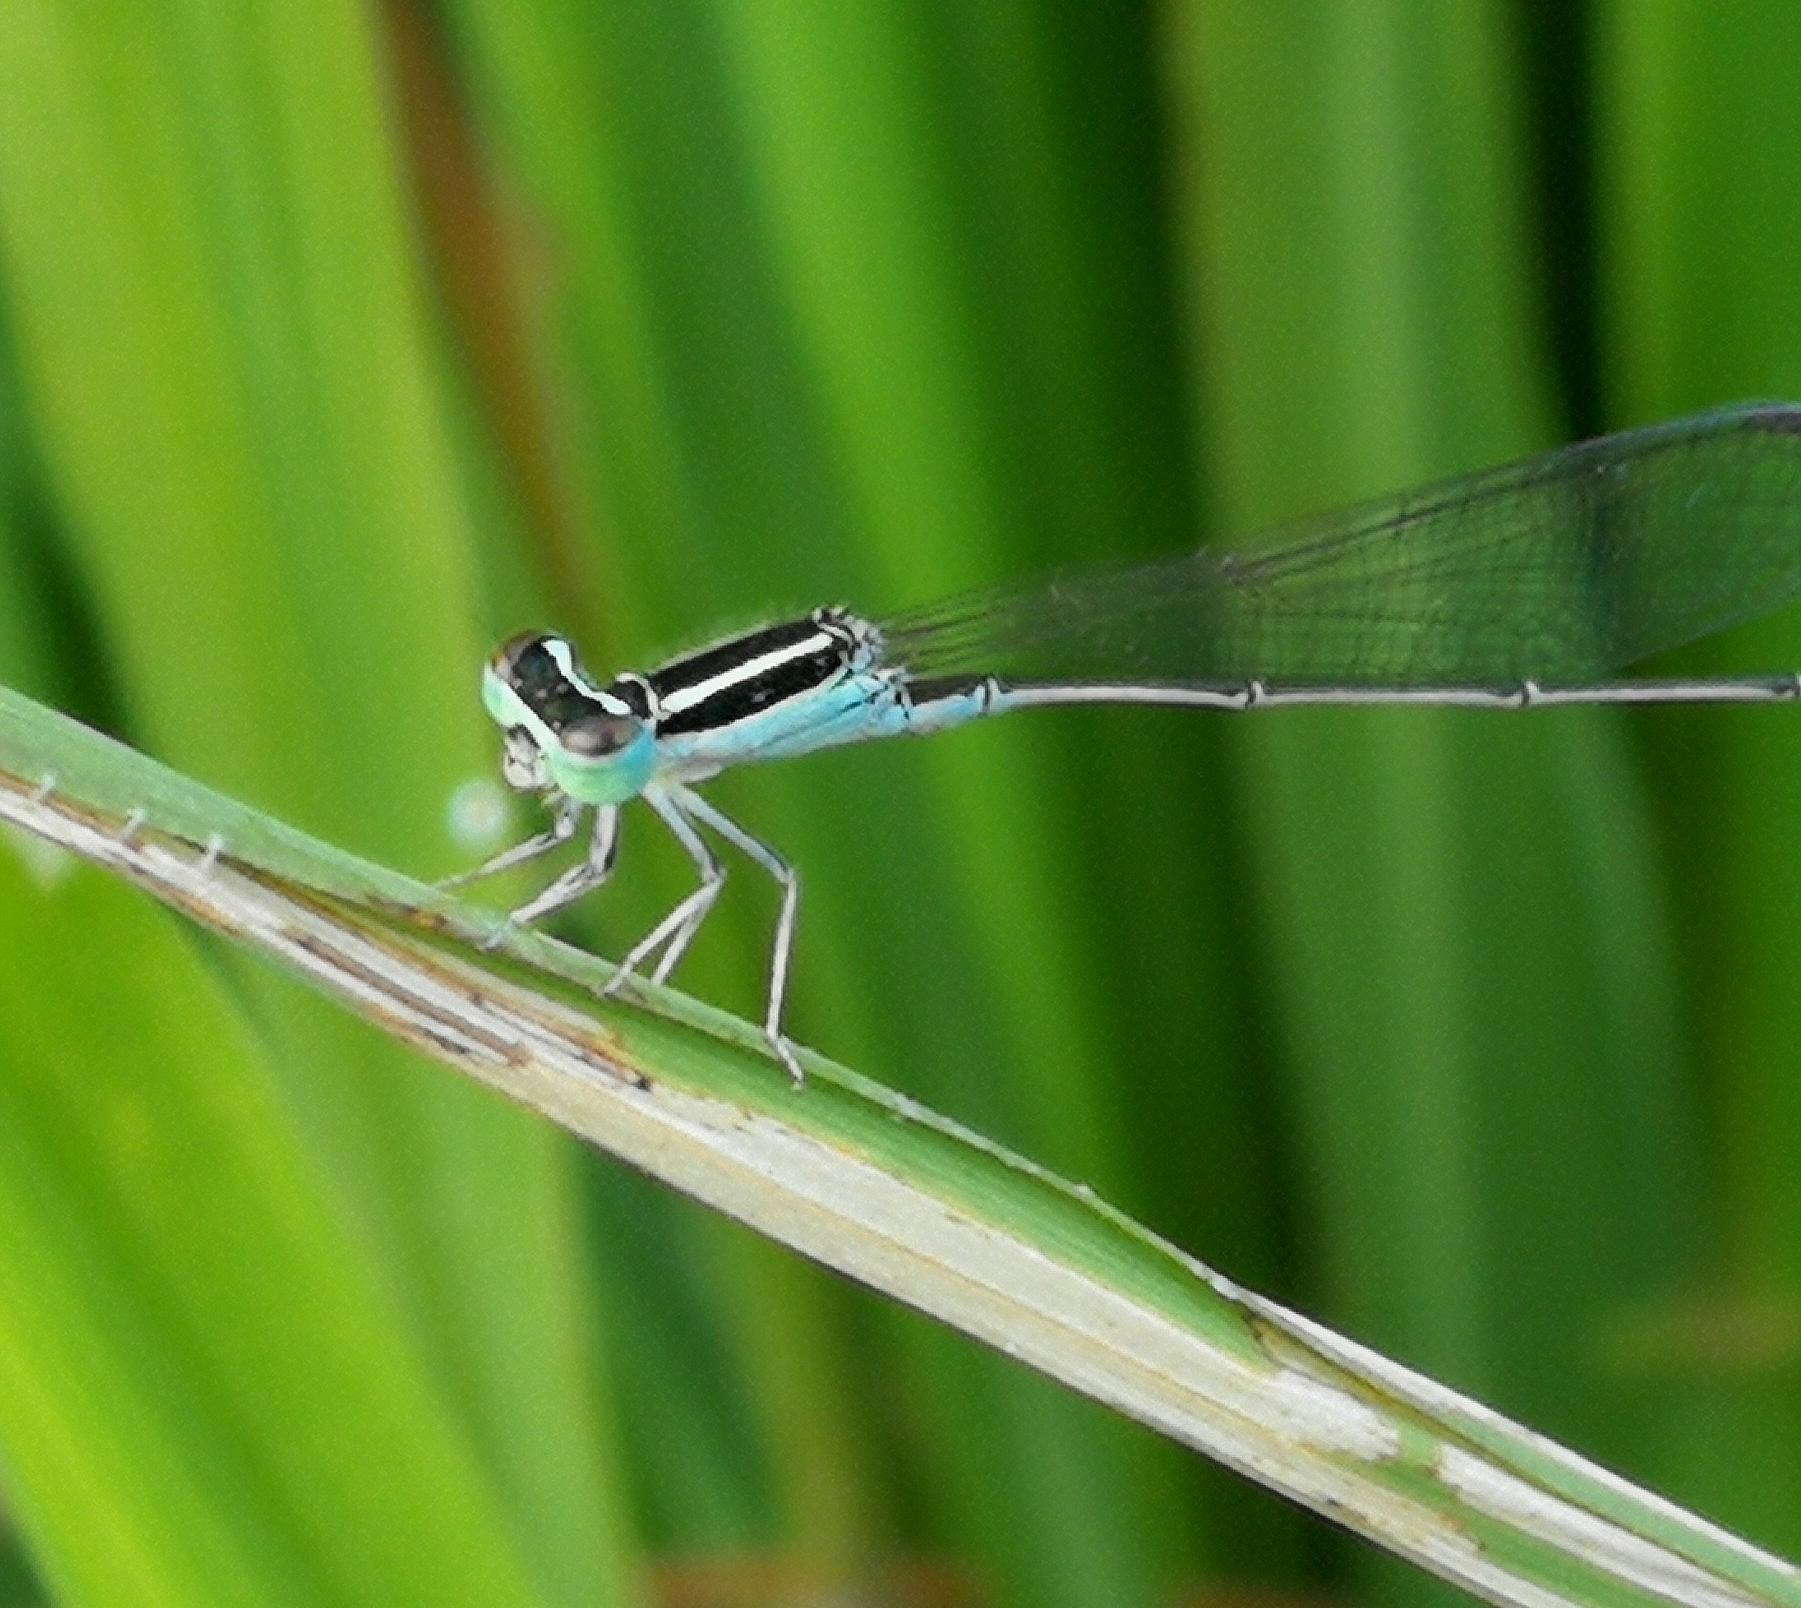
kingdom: Animalia
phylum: Arthropoda
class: Insecta
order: Odonata
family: Coenagrionidae
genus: Aciagrion
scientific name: Aciagrion occidentale
